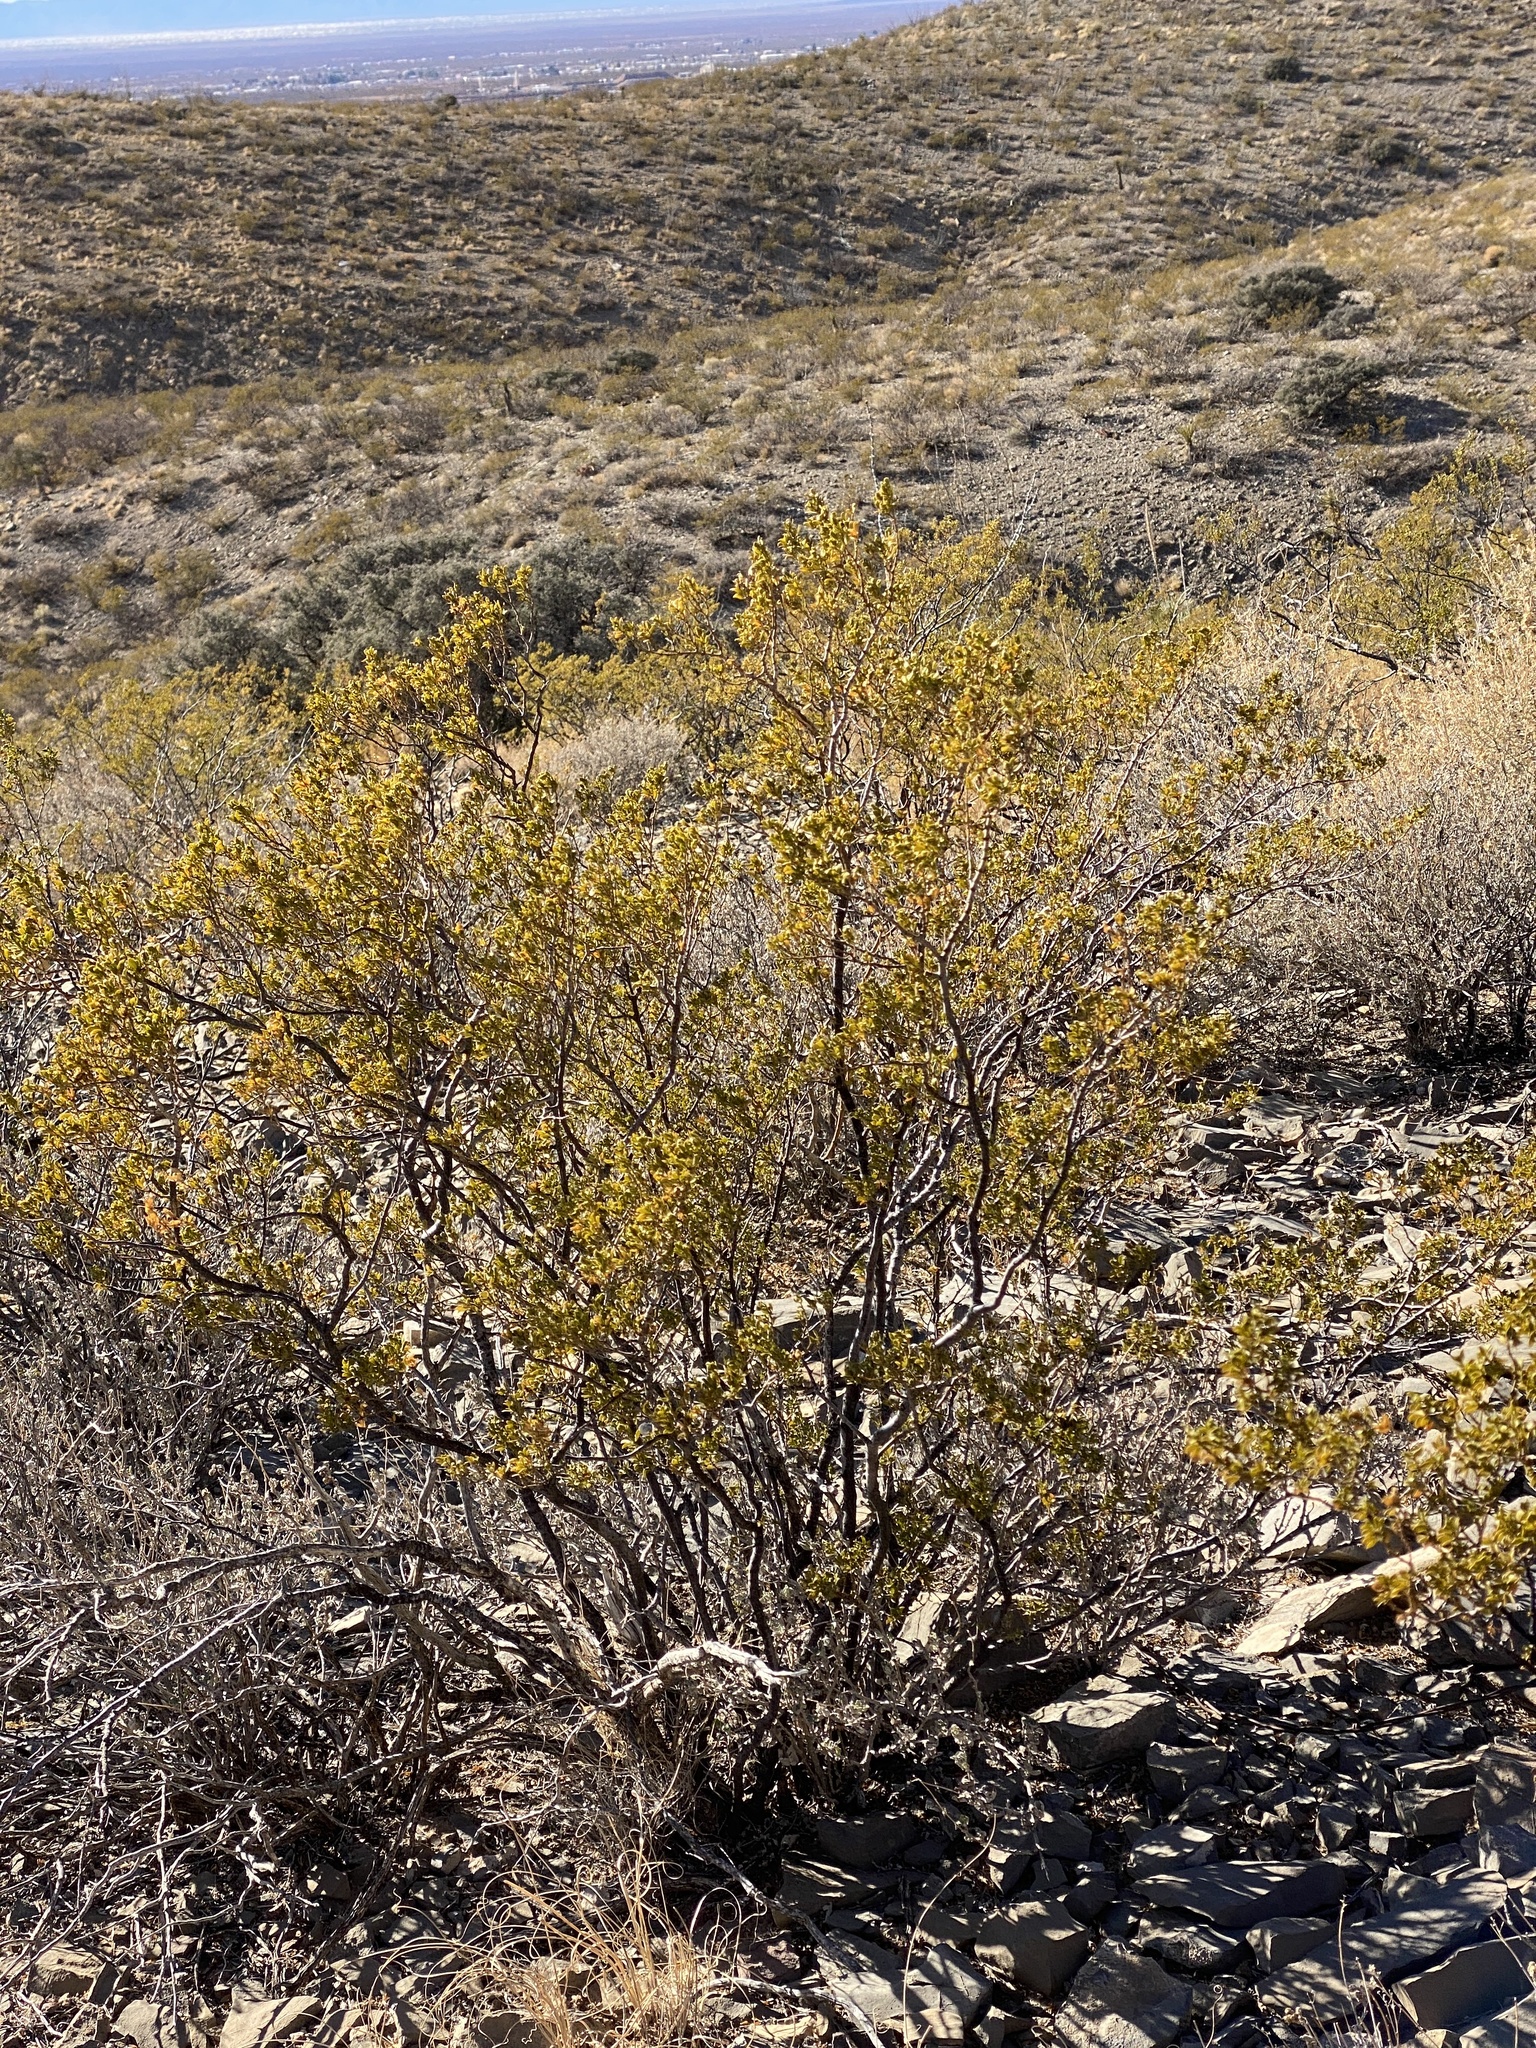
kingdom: Plantae
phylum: Tracheophyta
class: Magnoliopsida
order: Zygophyllales
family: Zygophyllaceae
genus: Larrea
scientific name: Larrea tridentata
